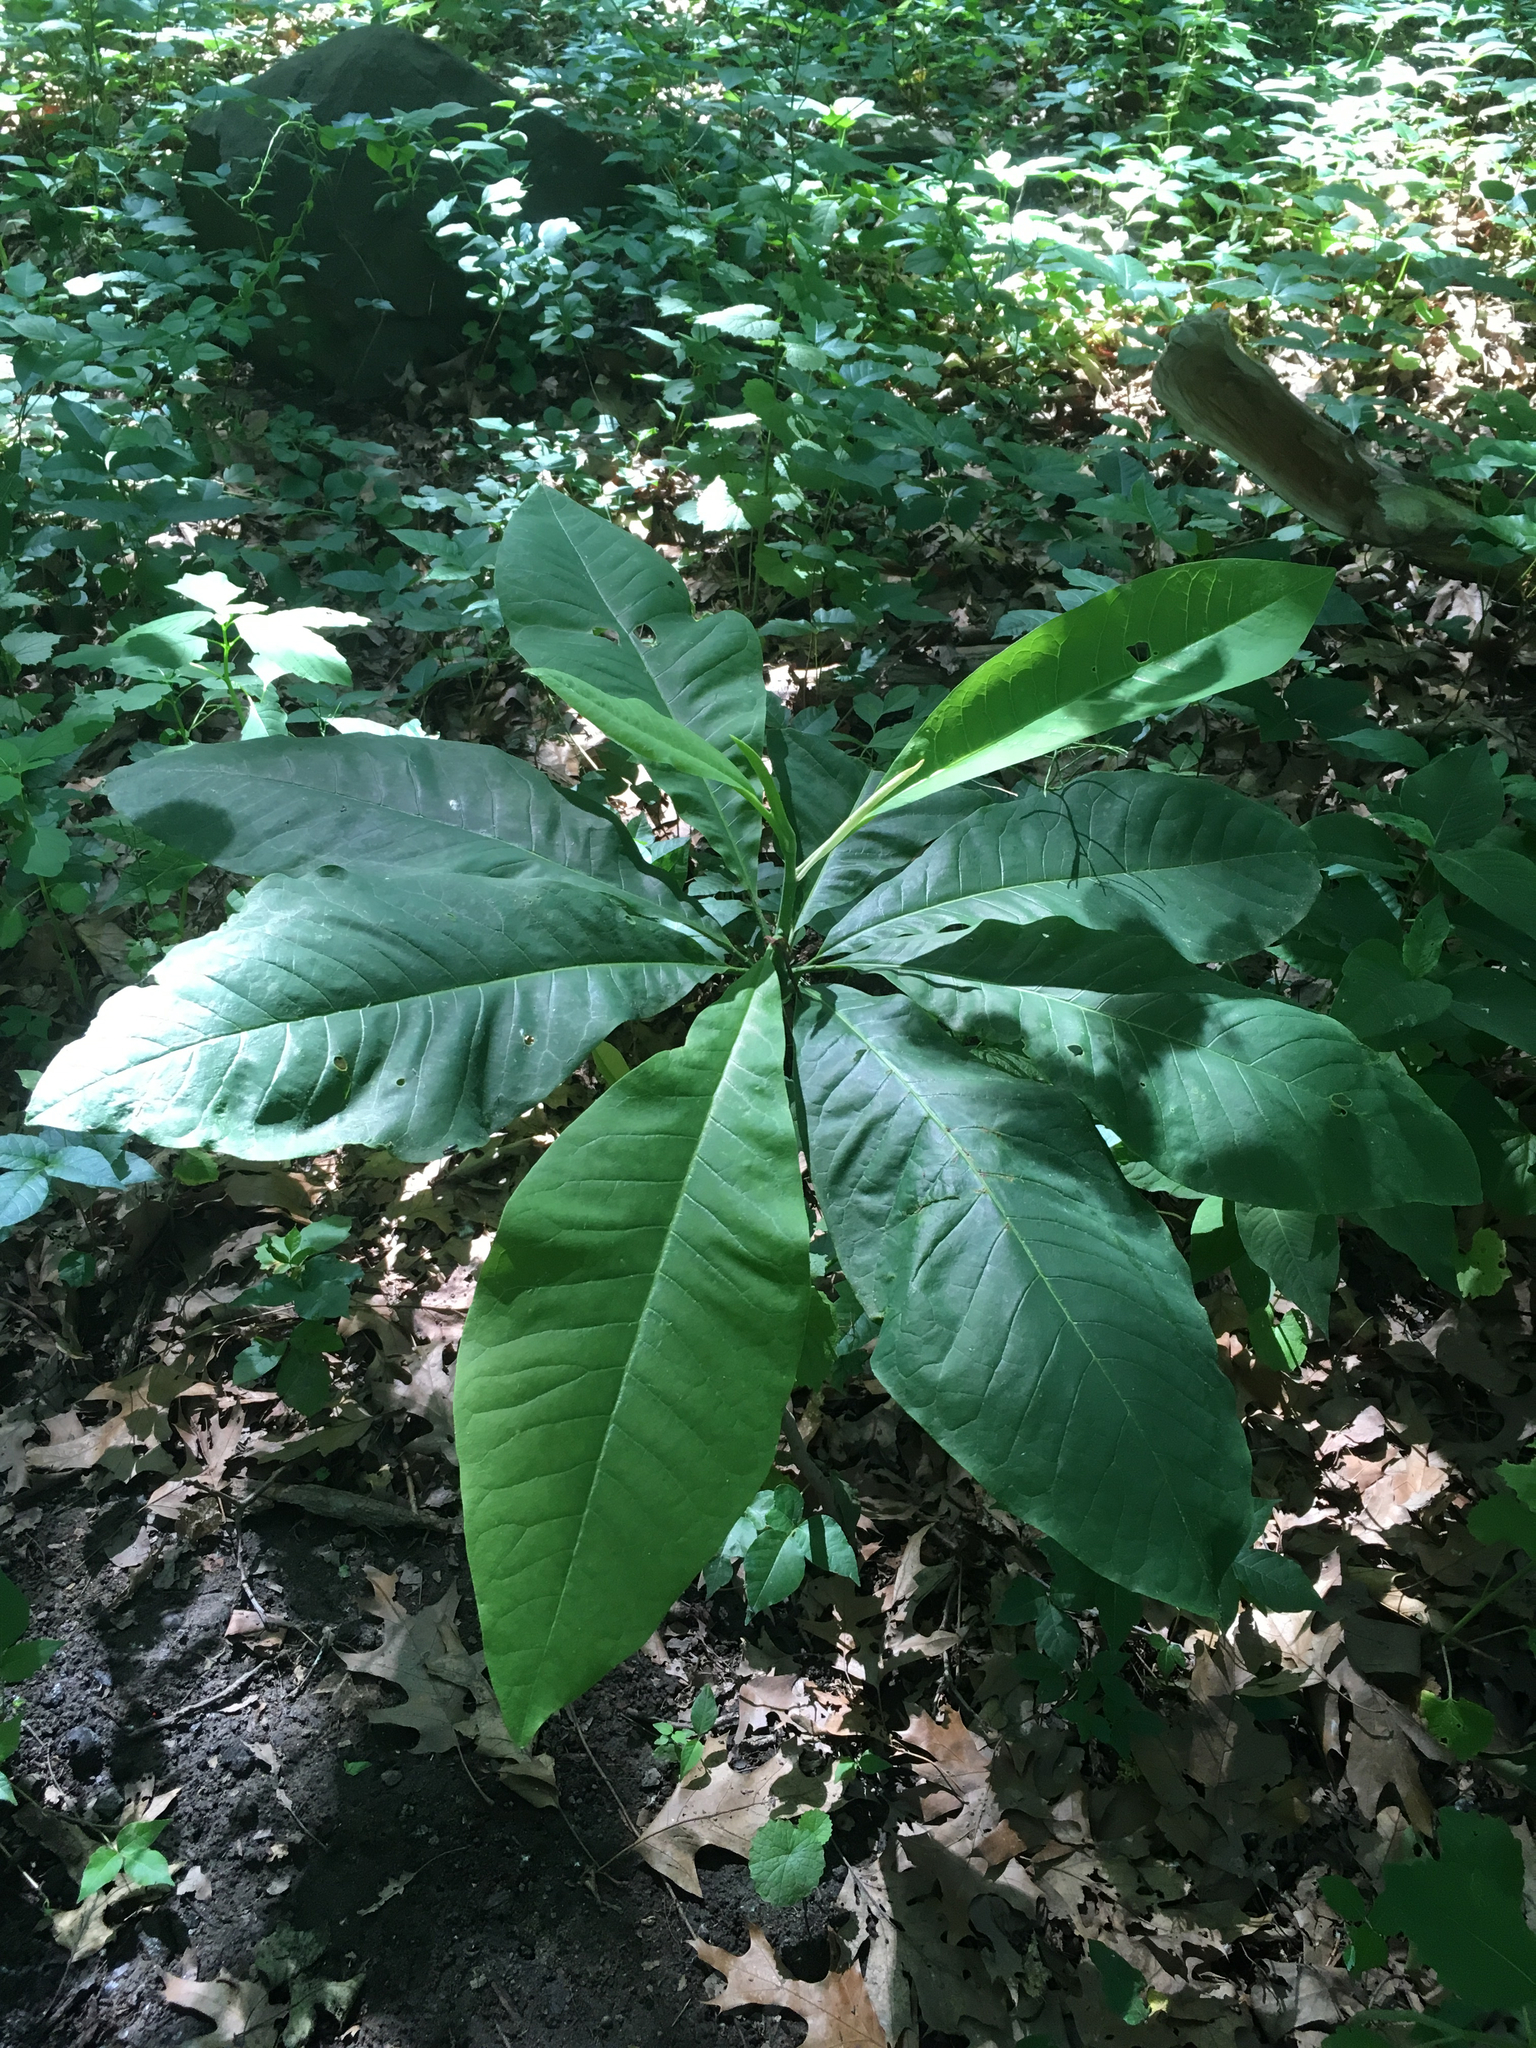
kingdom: Plantae
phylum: Tracheophyta
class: Magnoliopsida
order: Magnoliales
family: Magnoliaceae
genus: Magnolia
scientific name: Magnolia tripetala
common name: Umbrella magnolia
